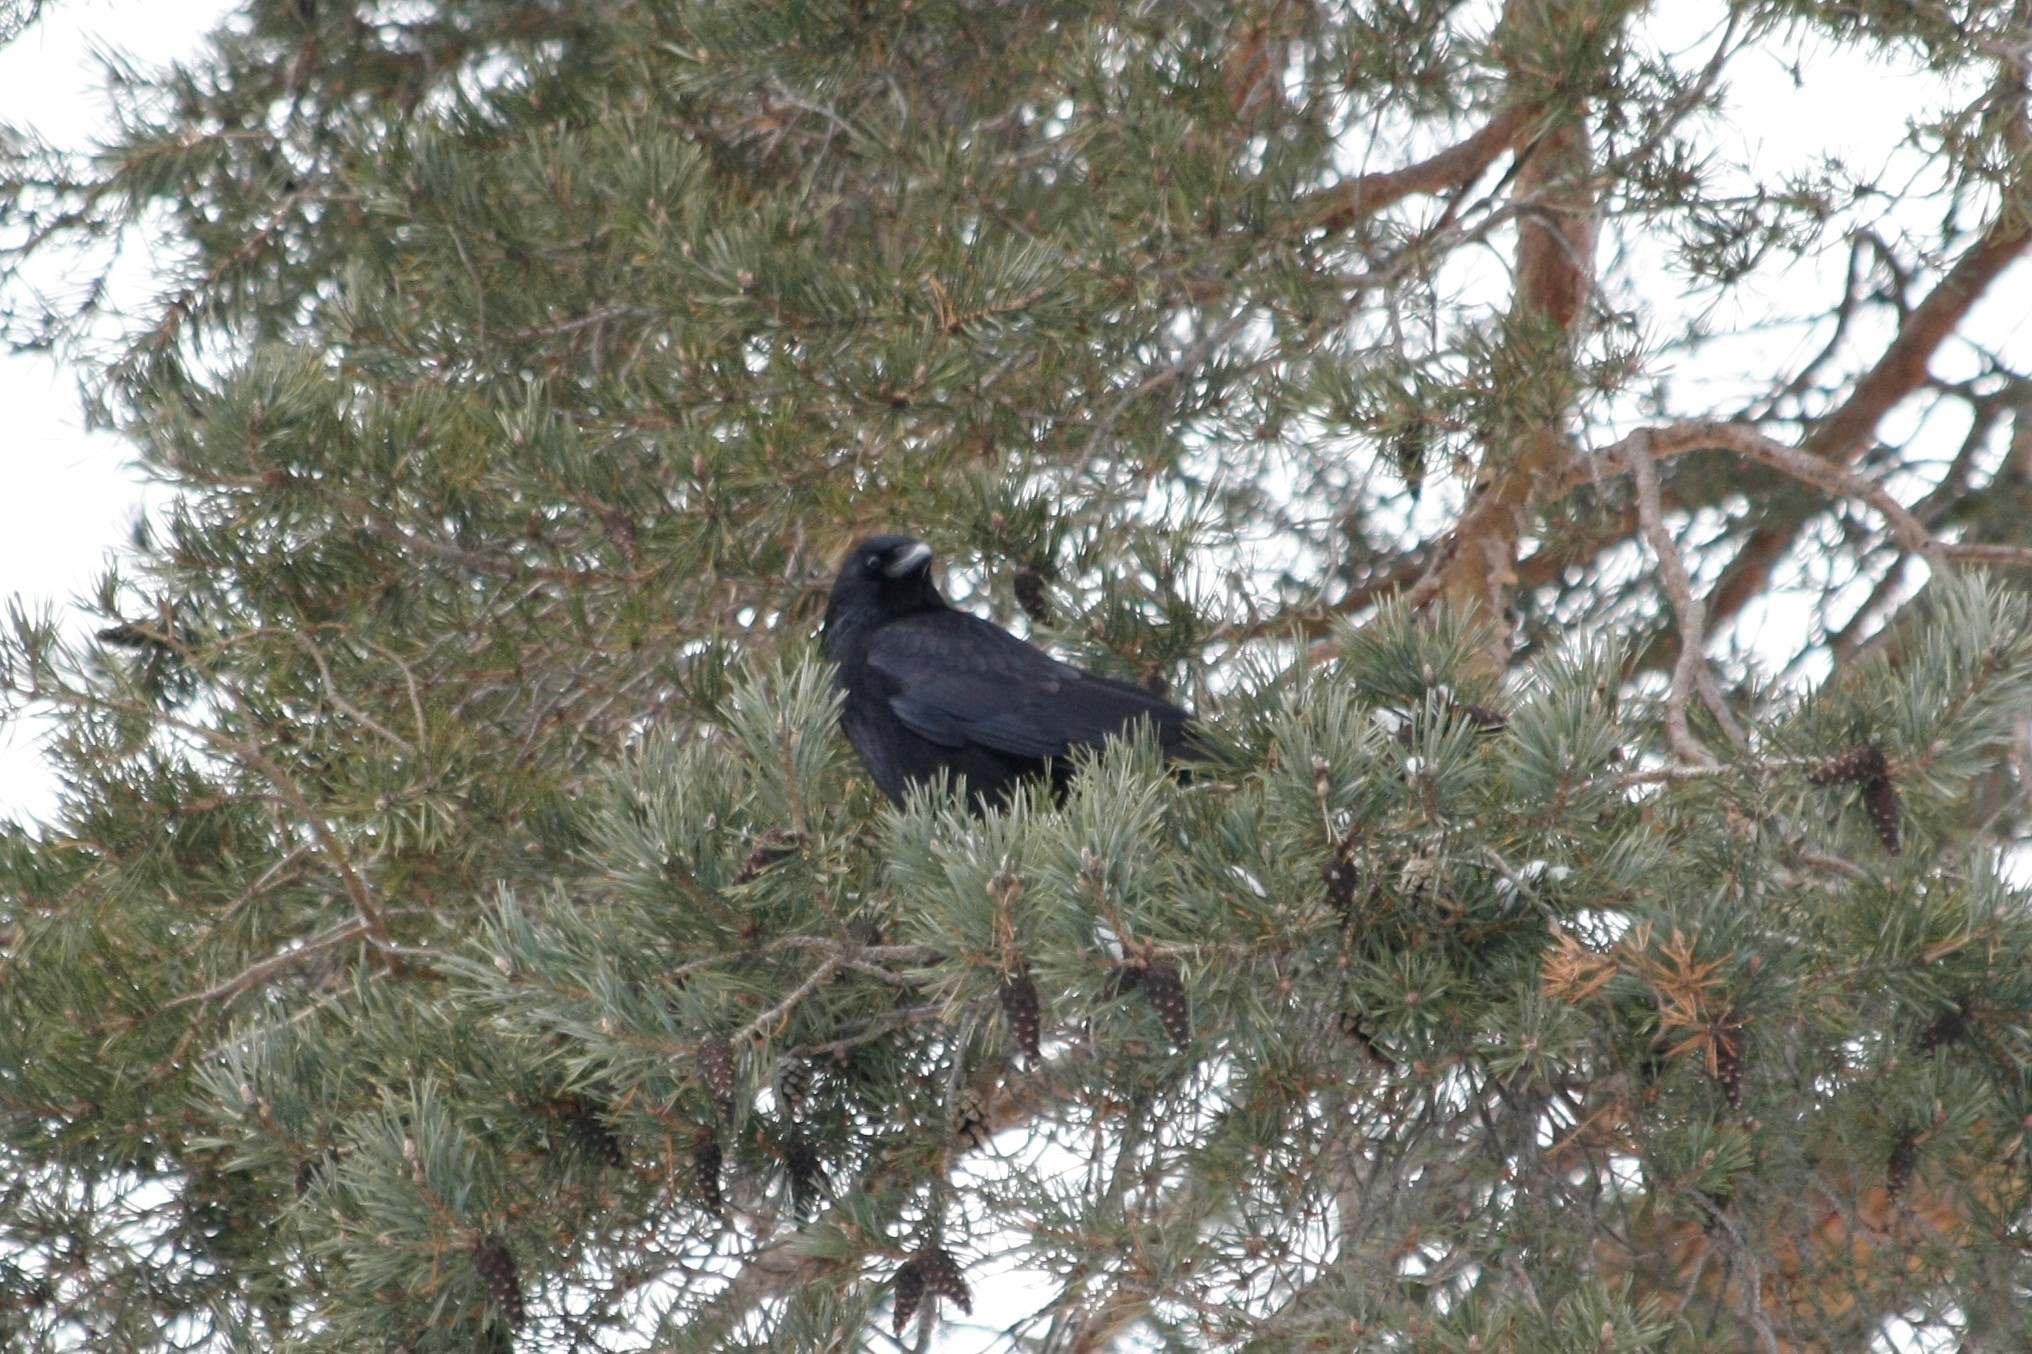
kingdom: Animalia
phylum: Chordata
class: Aves
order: Passeriformes
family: Corvidae
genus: Corvus
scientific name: Corvus corone
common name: Carrion crow
